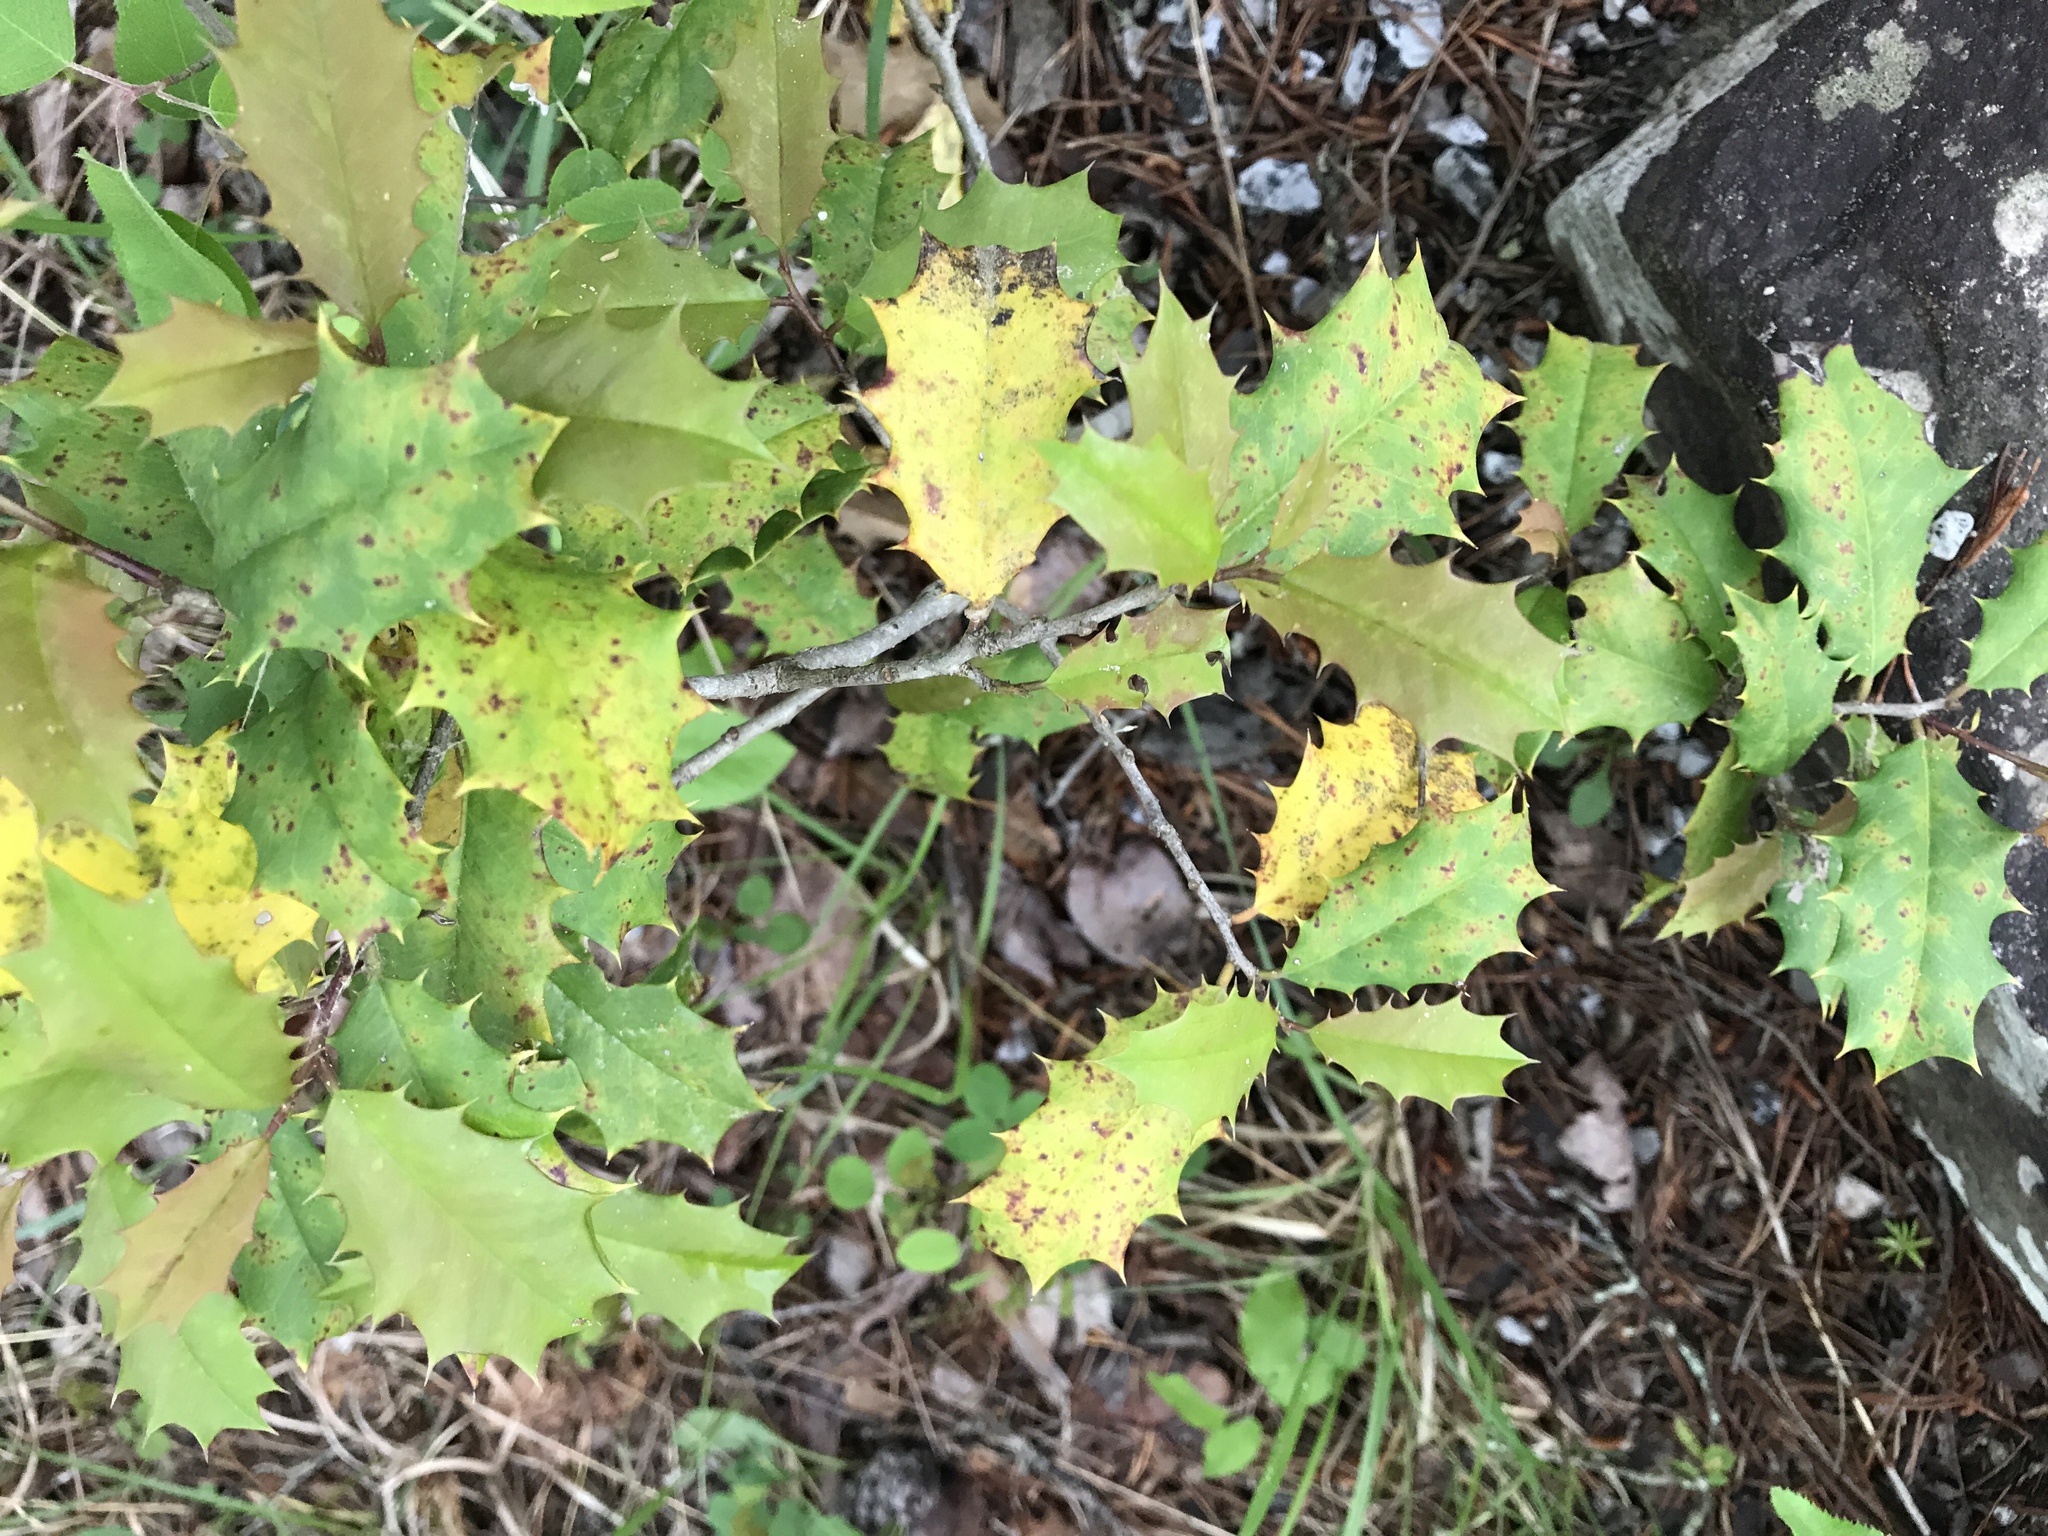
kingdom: Plantae
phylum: Tracheophyta
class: Magnoliopsida
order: Aquifoliales
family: Aquifoliaceae
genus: Ilex
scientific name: Ilex opaca
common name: American holly
